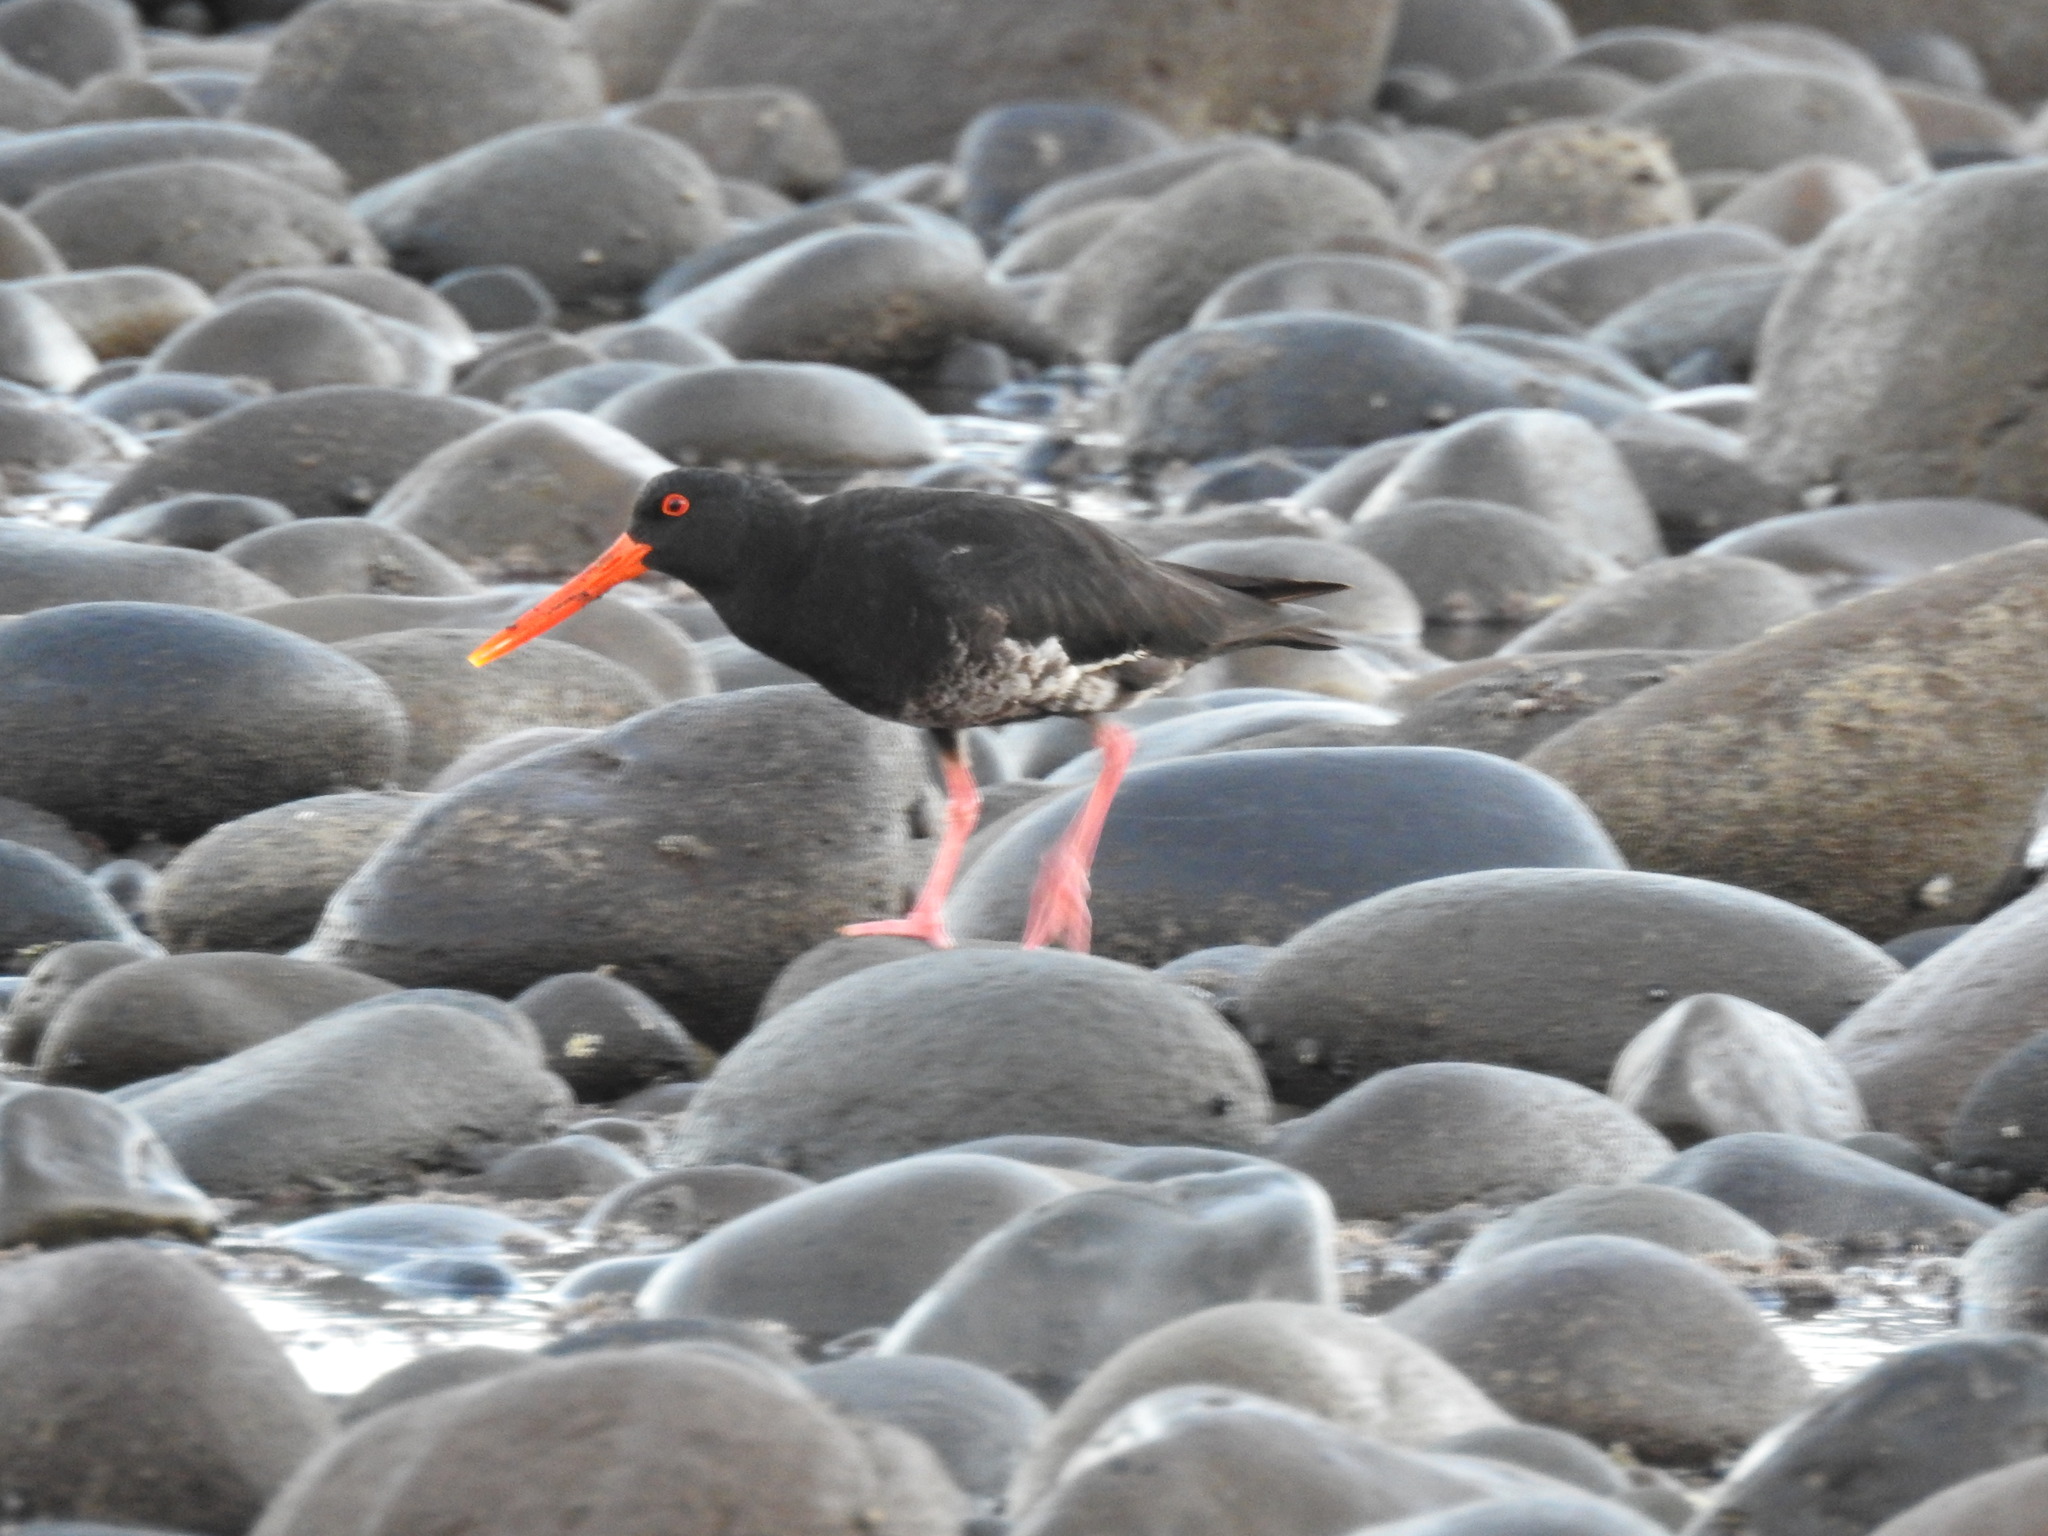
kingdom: Animalia
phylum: Chordata
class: Aves
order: Charadriiformes
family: Haematopodidae
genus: Haematopus
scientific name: Haematopus unicolor
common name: Variable oystercatcher
